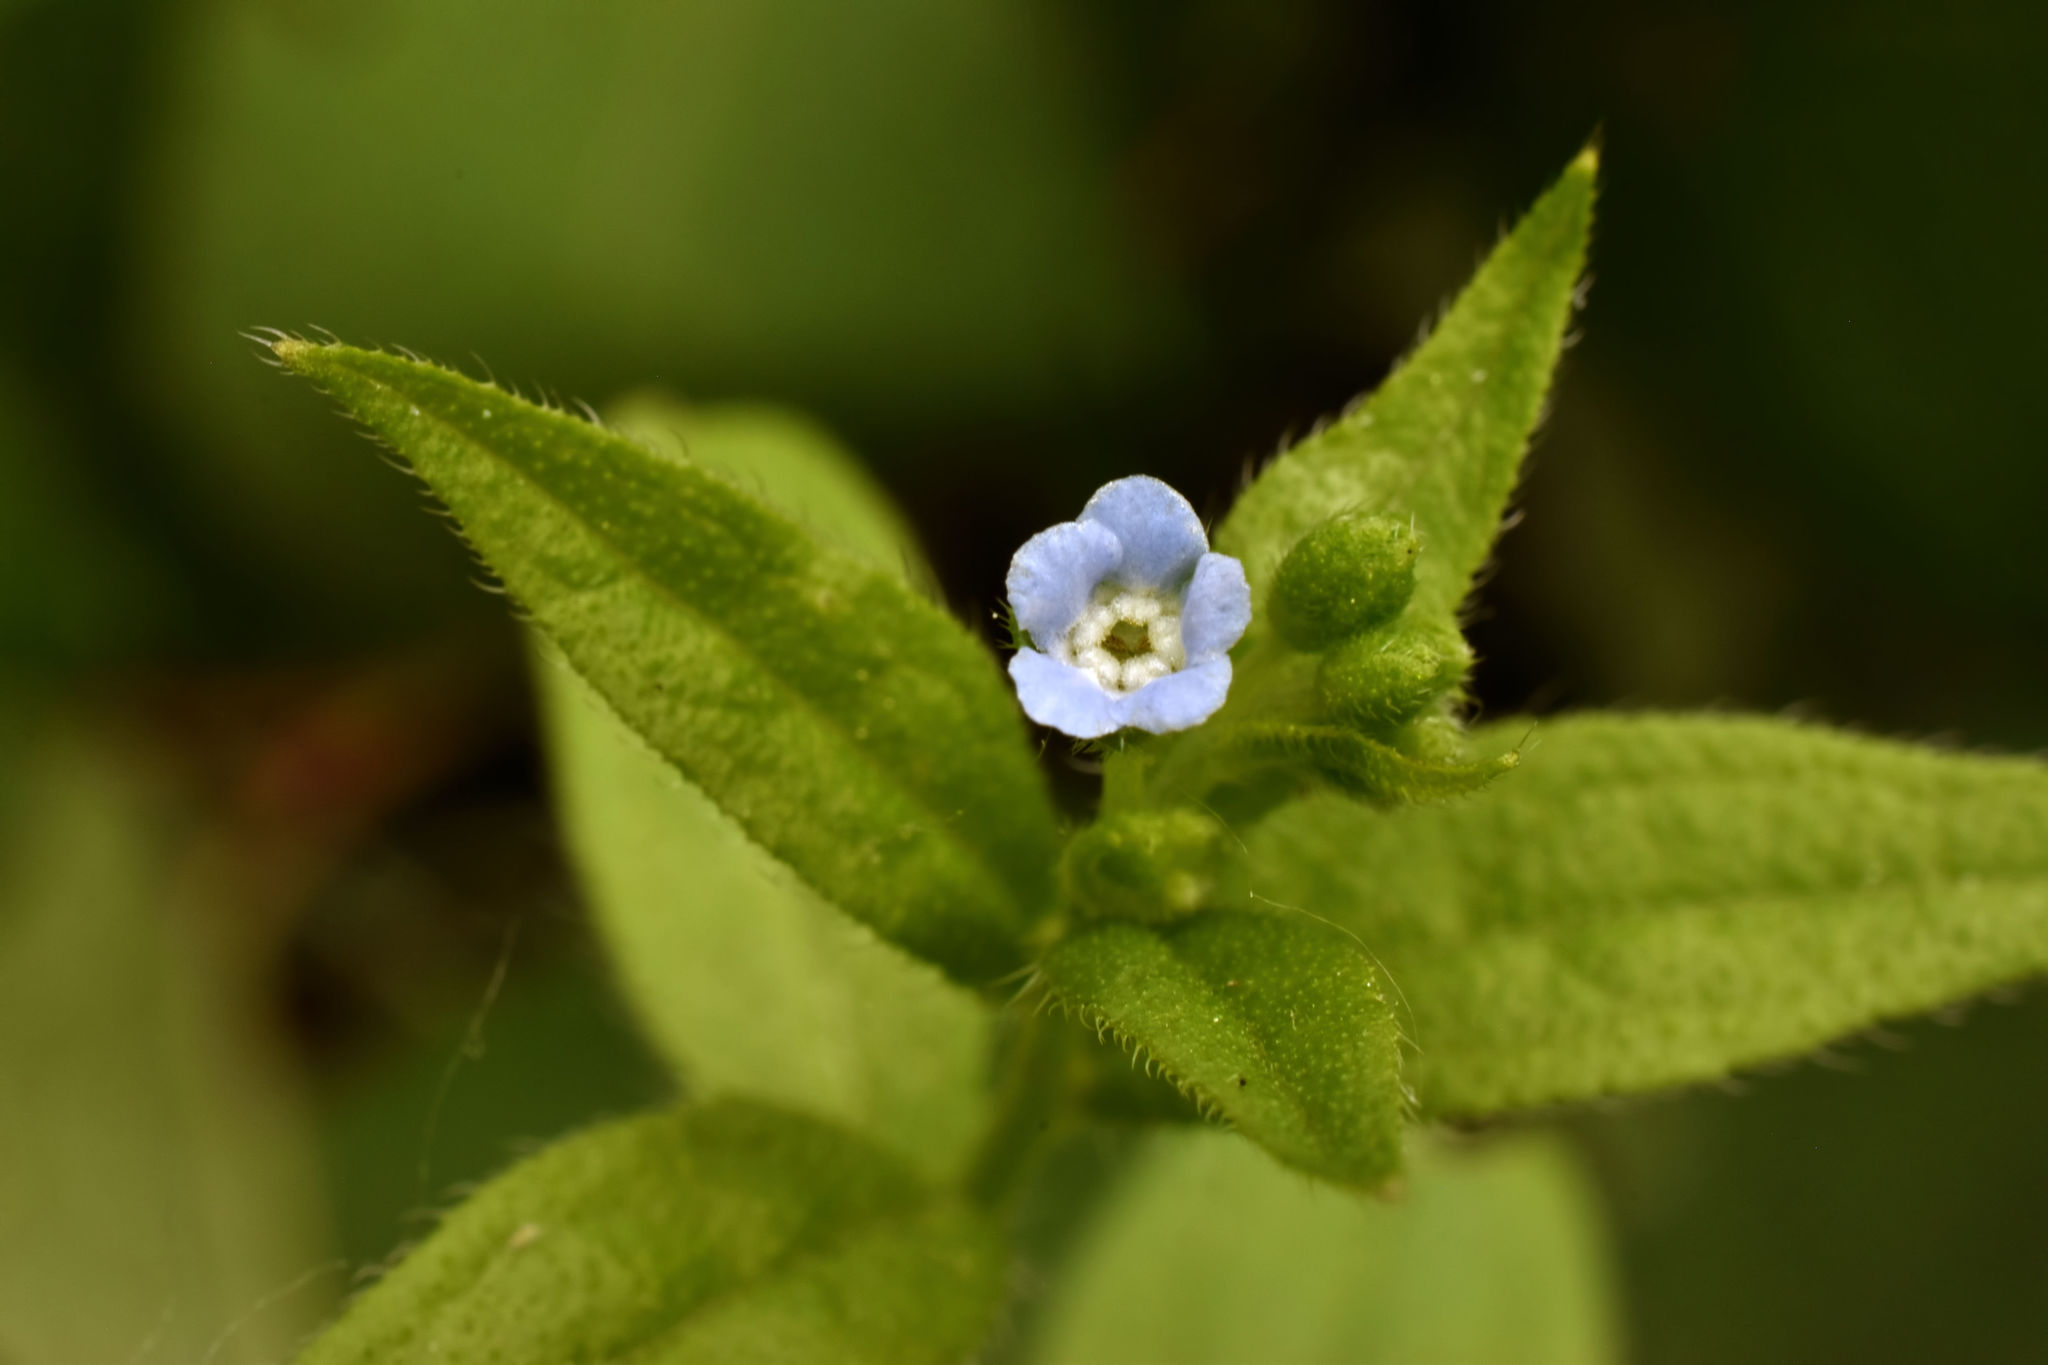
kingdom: Plantae
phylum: Tracheophyta
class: Magnoliopsida
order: Boraginales
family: Boraginaceae
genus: Hackelia
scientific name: Hackelia deflexa
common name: Nodding stickseed
